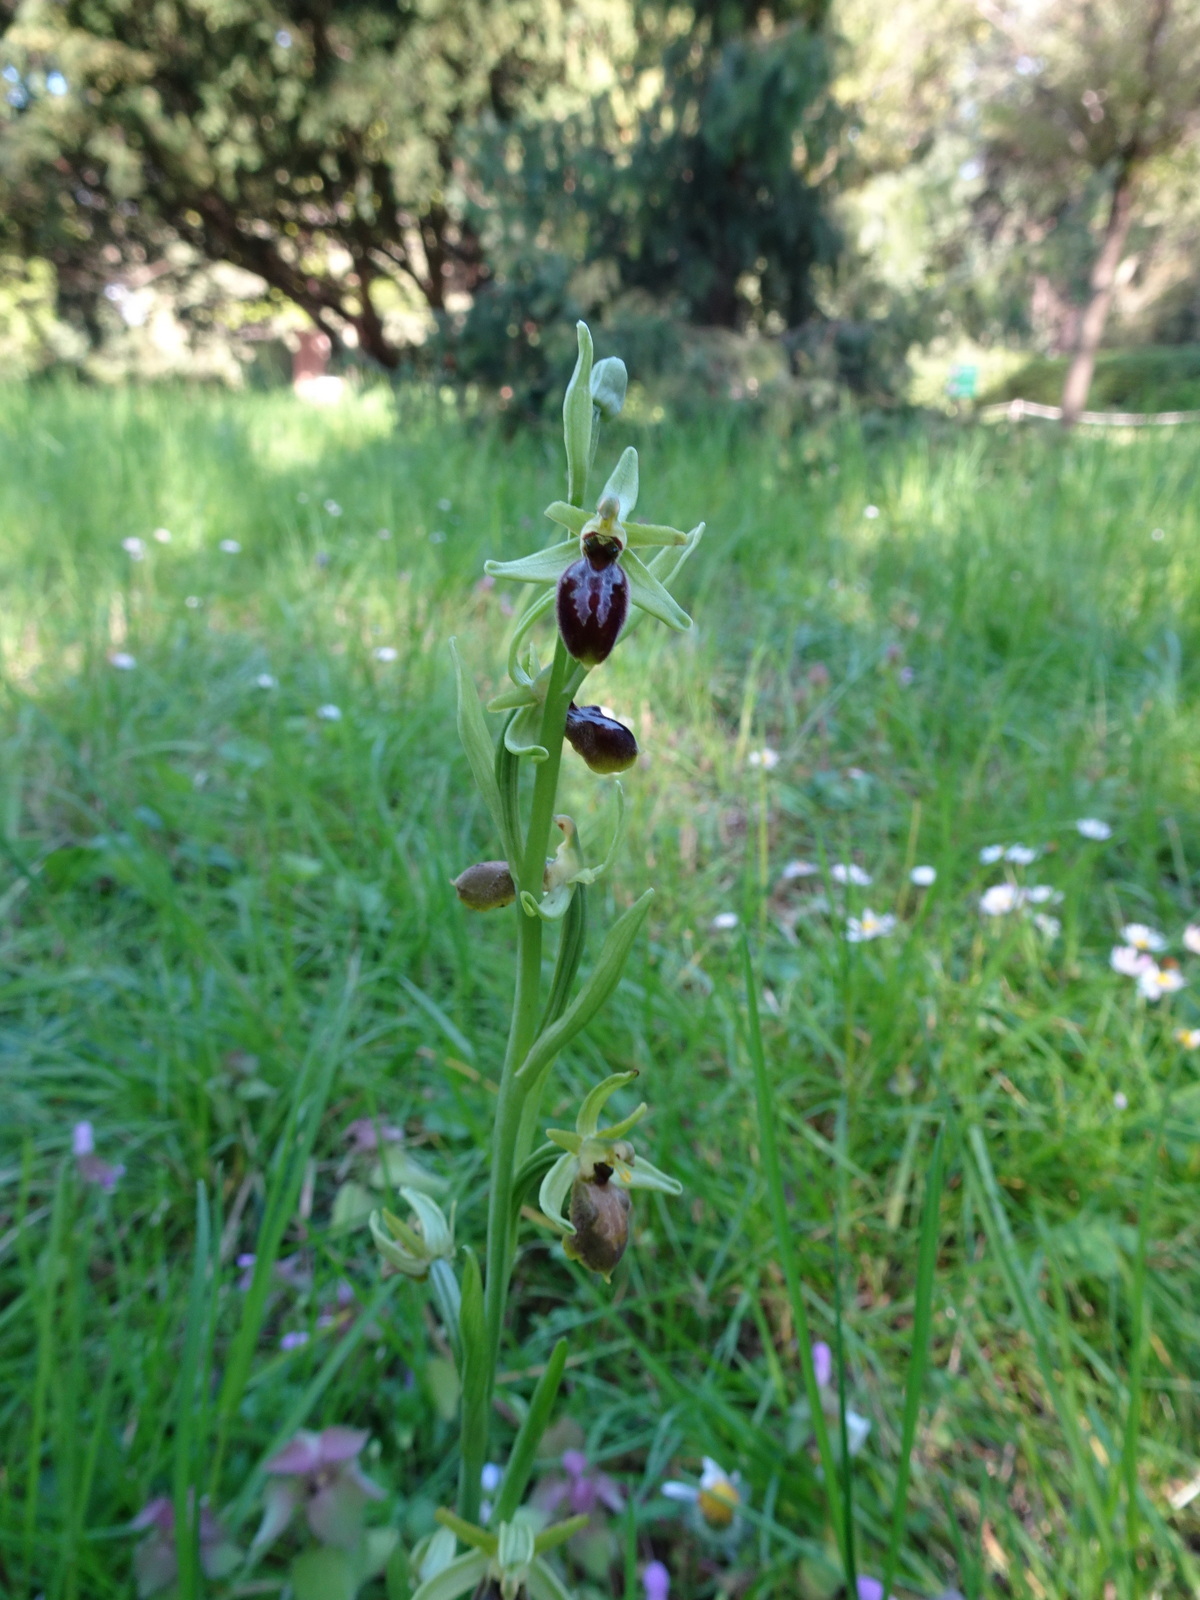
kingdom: Plantae
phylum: Tracheophyta
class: Liliopsida
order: Asparagales
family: Orchidaceae
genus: Ophrys
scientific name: Ophrys sphegodes
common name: Early spider-orchid
